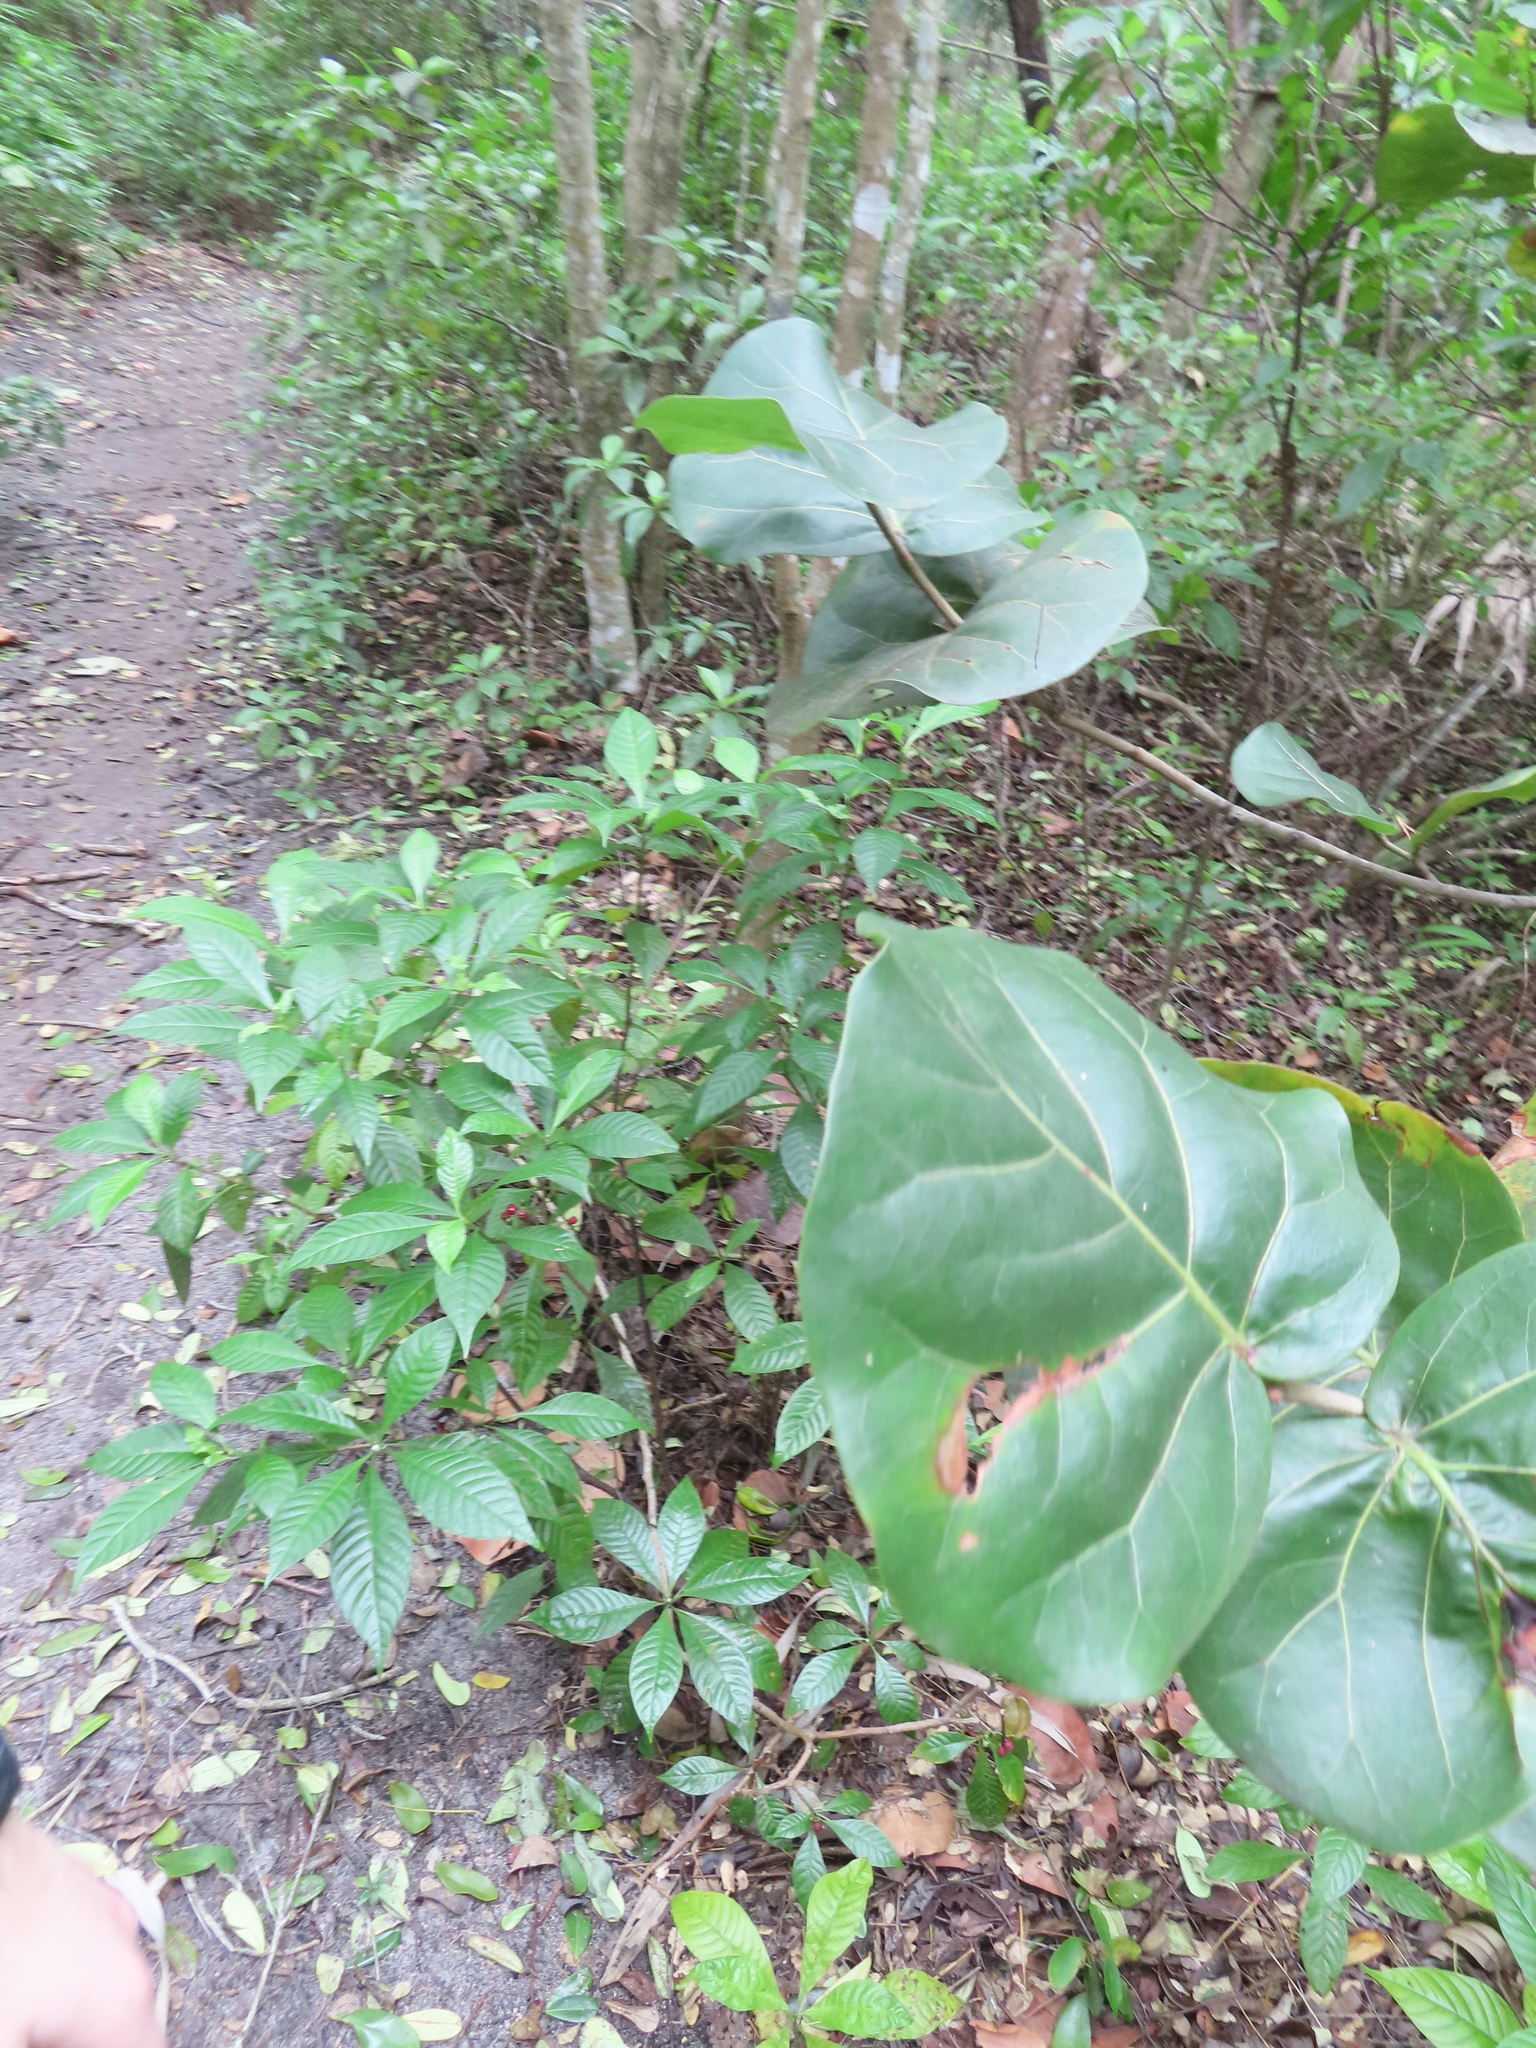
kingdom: Plantae
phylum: Tracheophyta
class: Magnoliopsida
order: Caryophyllales
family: Polygonaceae
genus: Coccoloba
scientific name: Coccoloba uvifera
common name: Seagrape
